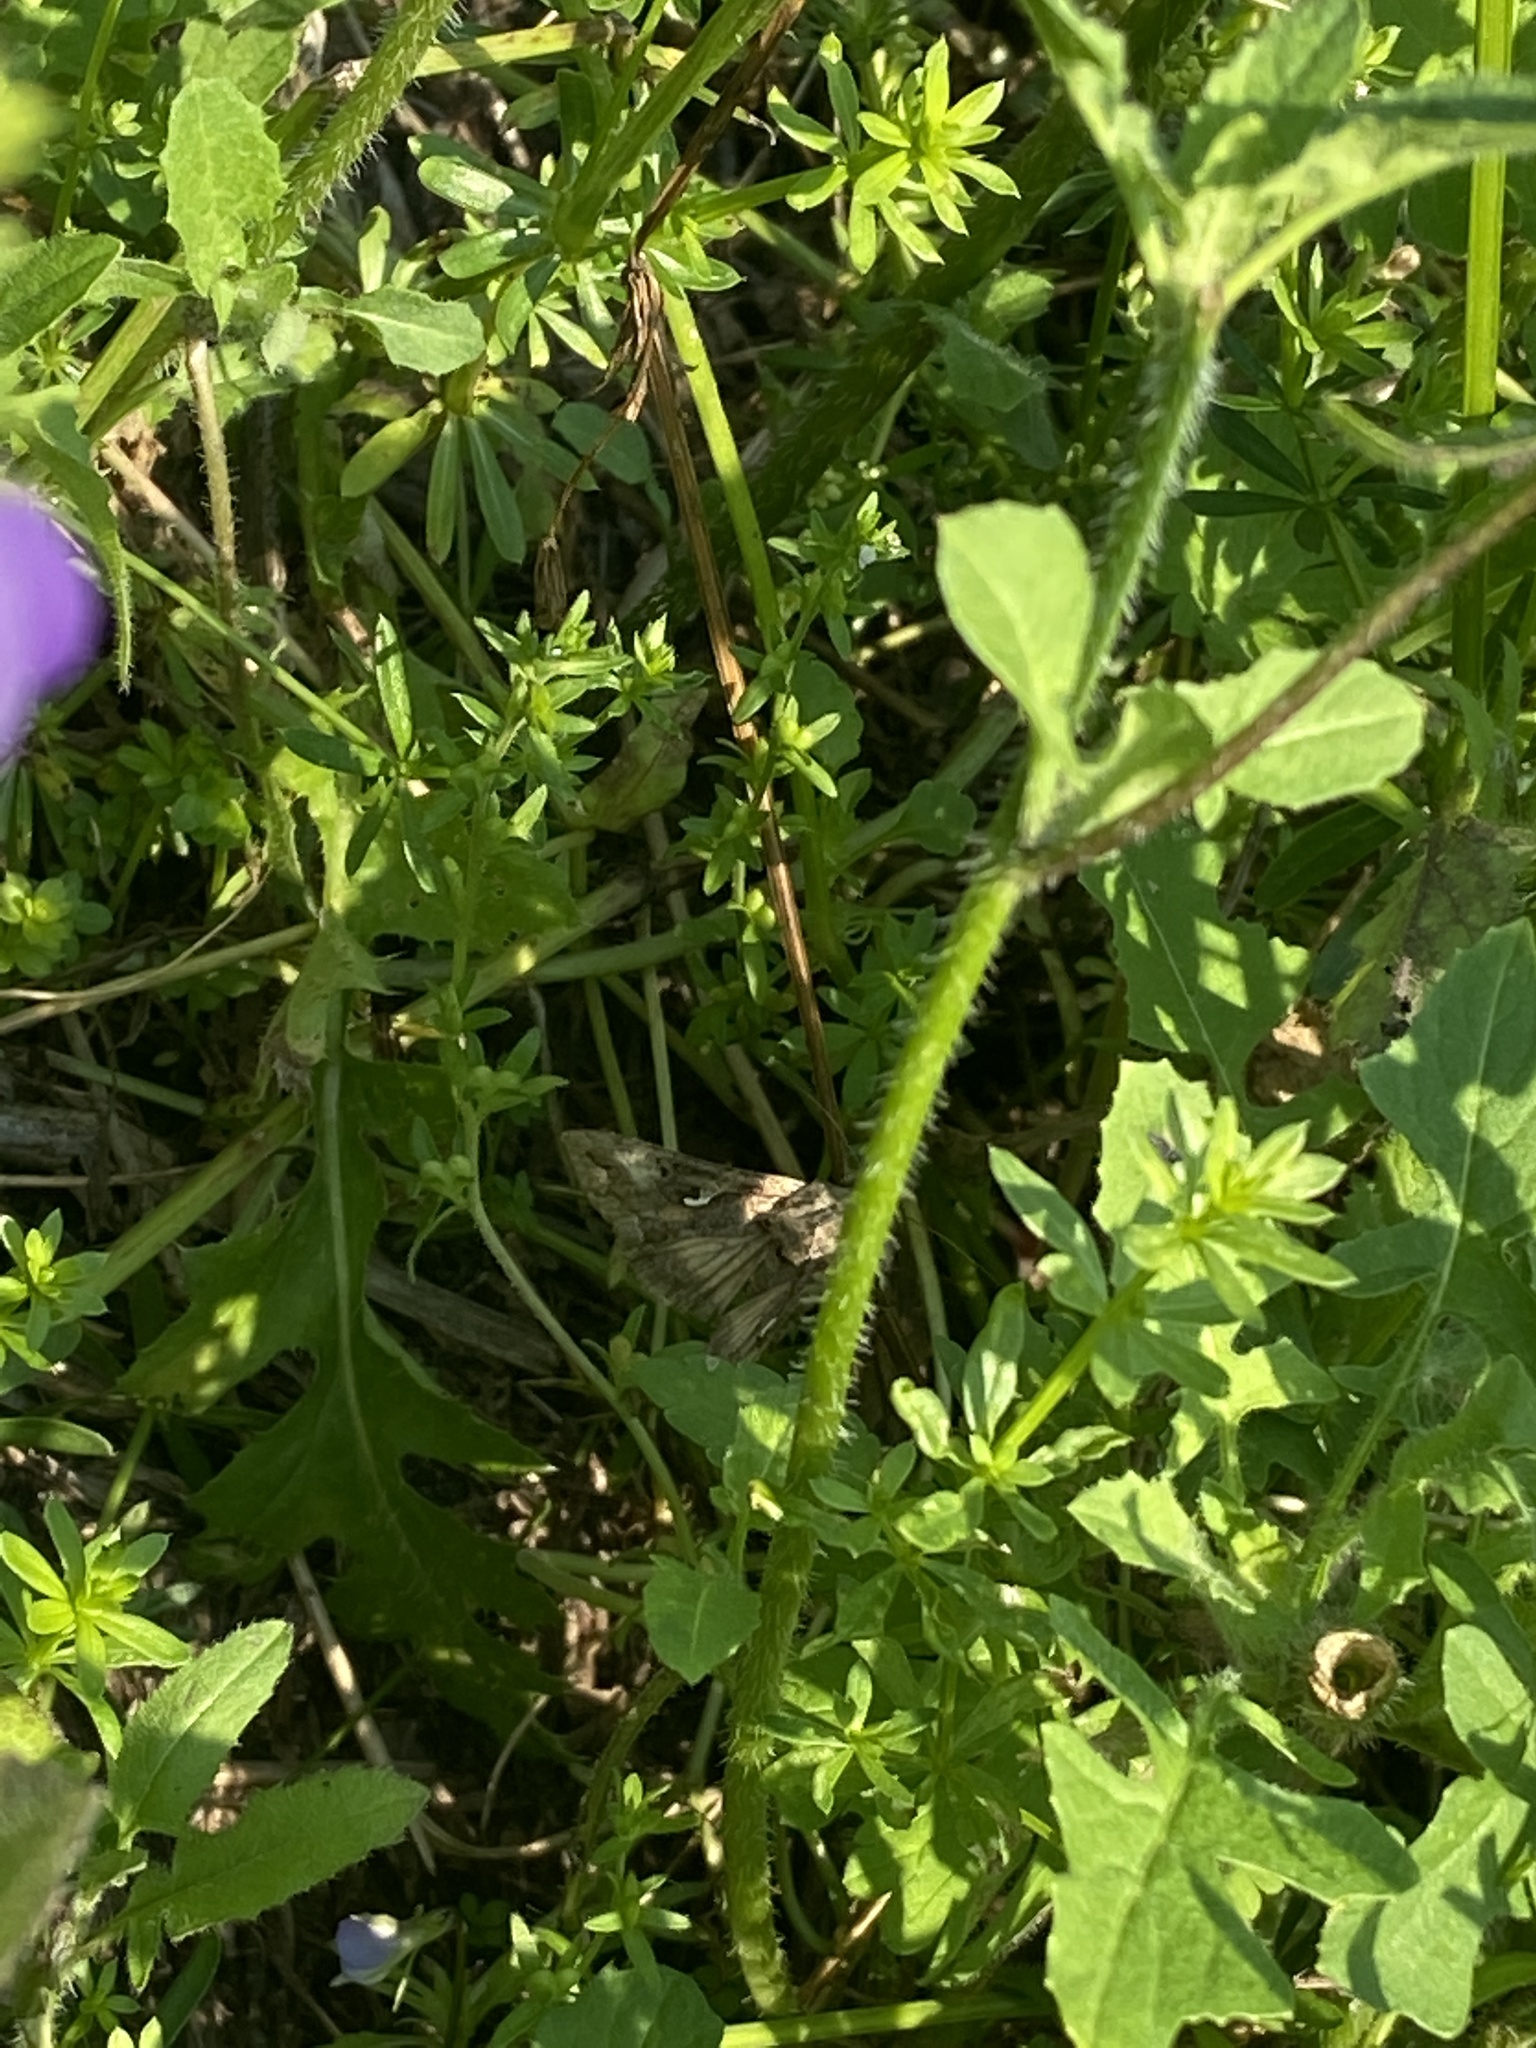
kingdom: Animalia
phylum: Arthropoda
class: Insecta
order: Lepidoptera
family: Noctuidae
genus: Autographa
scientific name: Autographa gamma
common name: Silver y
